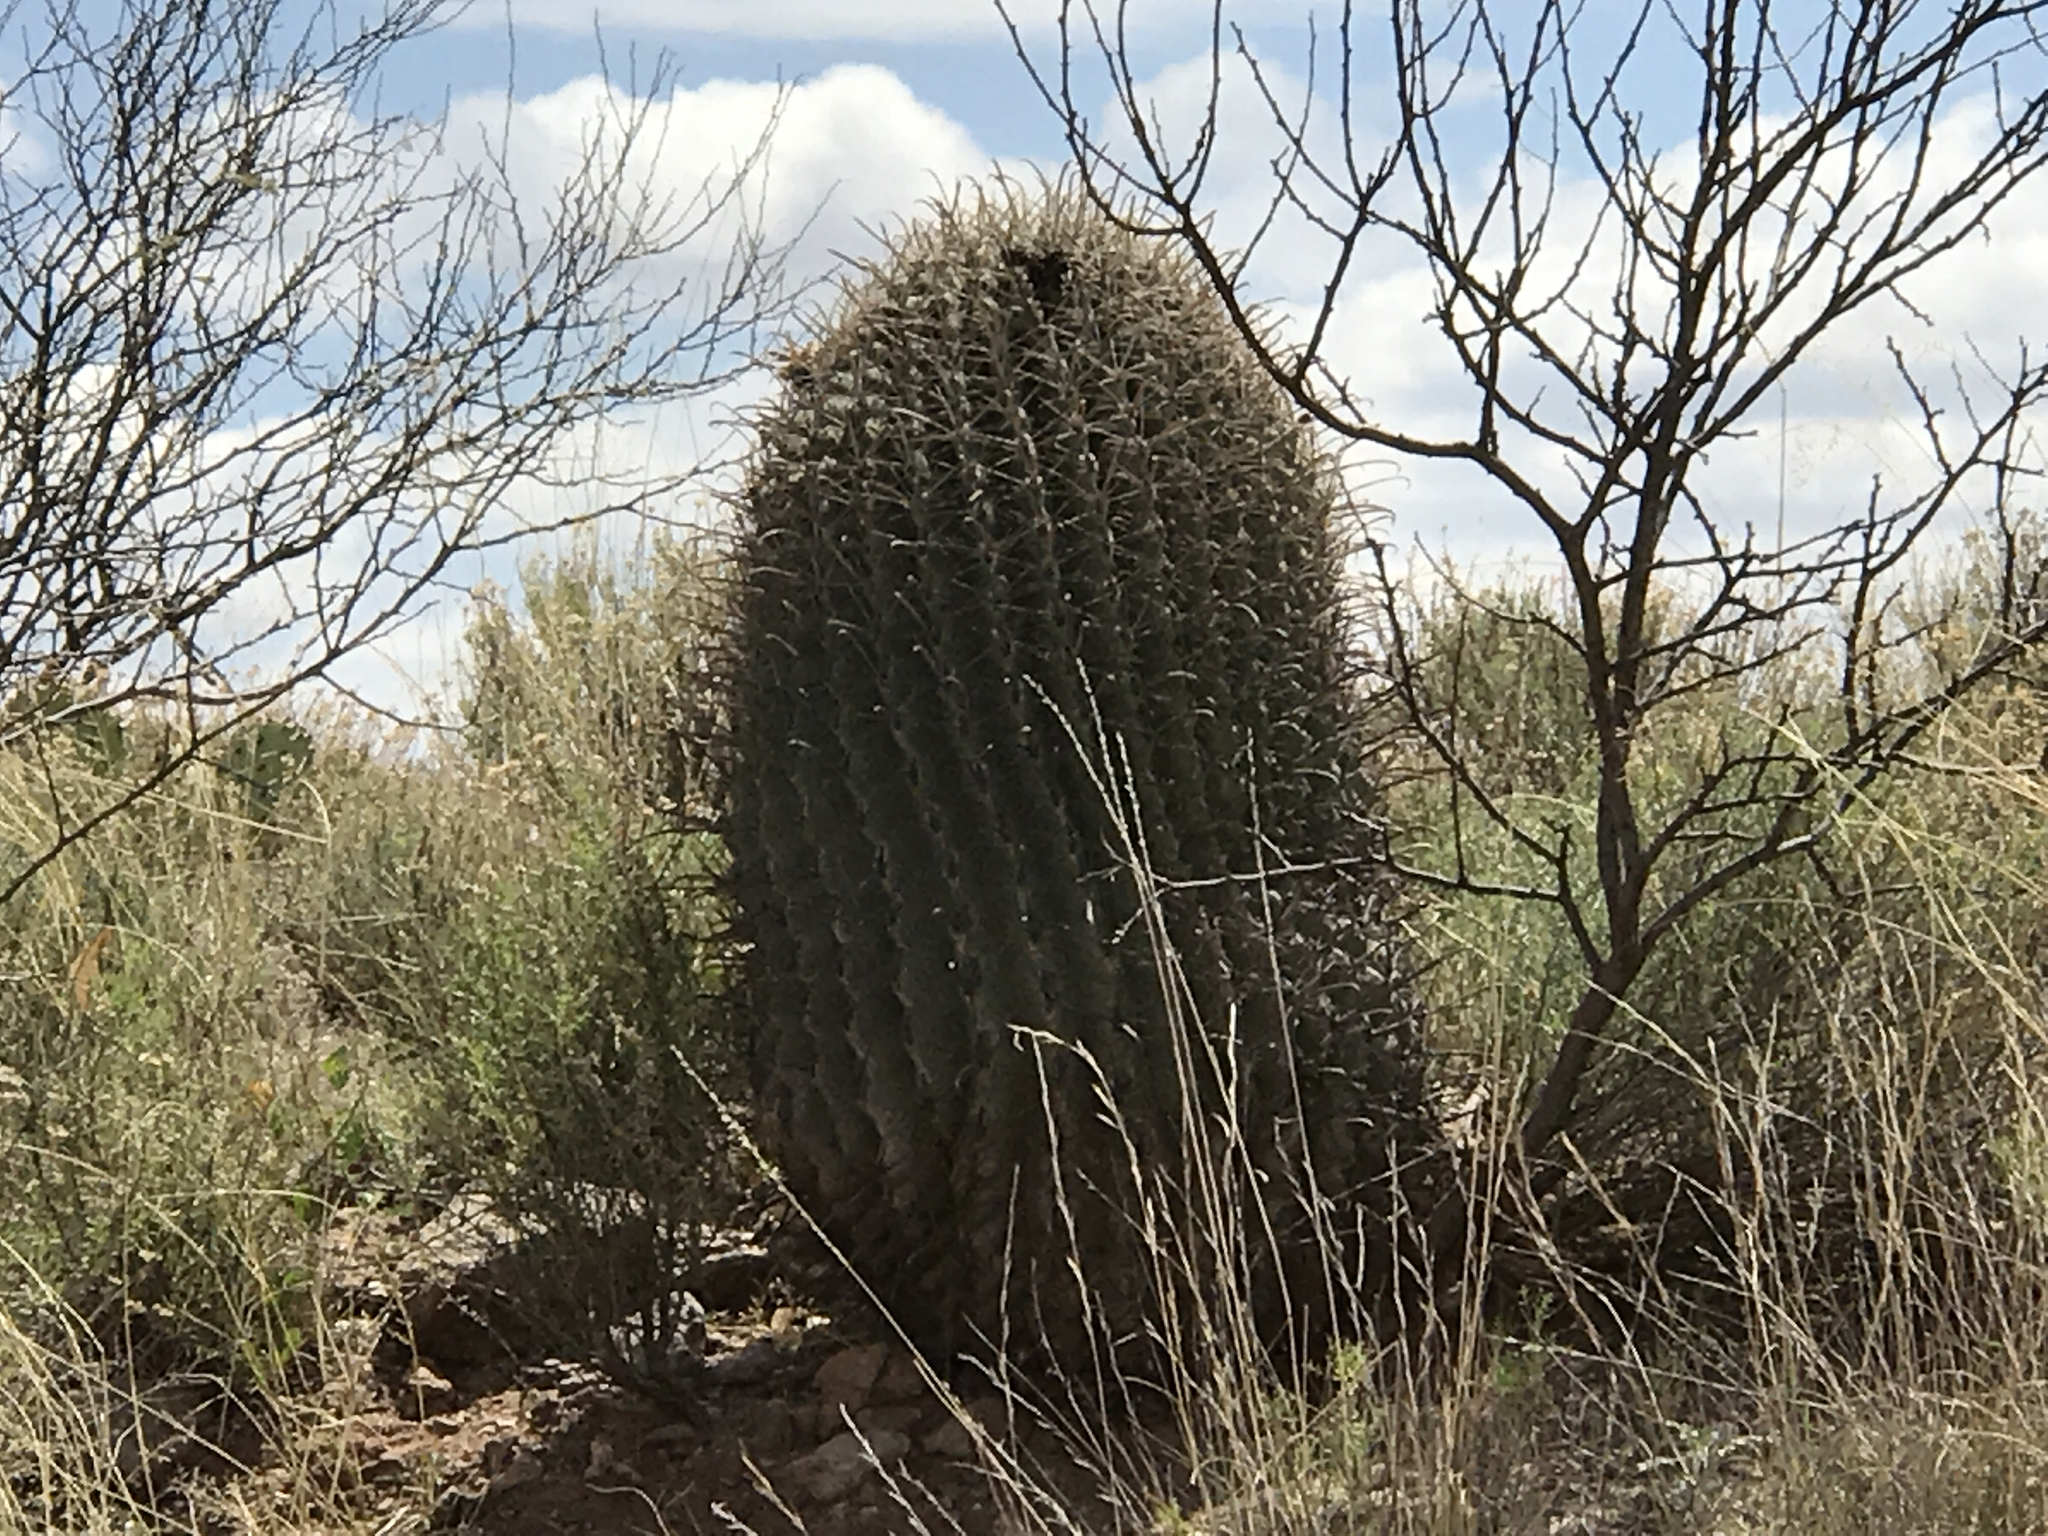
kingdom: Plantae
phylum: Tracheophyta
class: Magnoliopsida
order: Caryophyllales
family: Cactaceae
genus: Ferocactus
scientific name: Ferocactus wislizeni
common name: Candy barrel cactus
